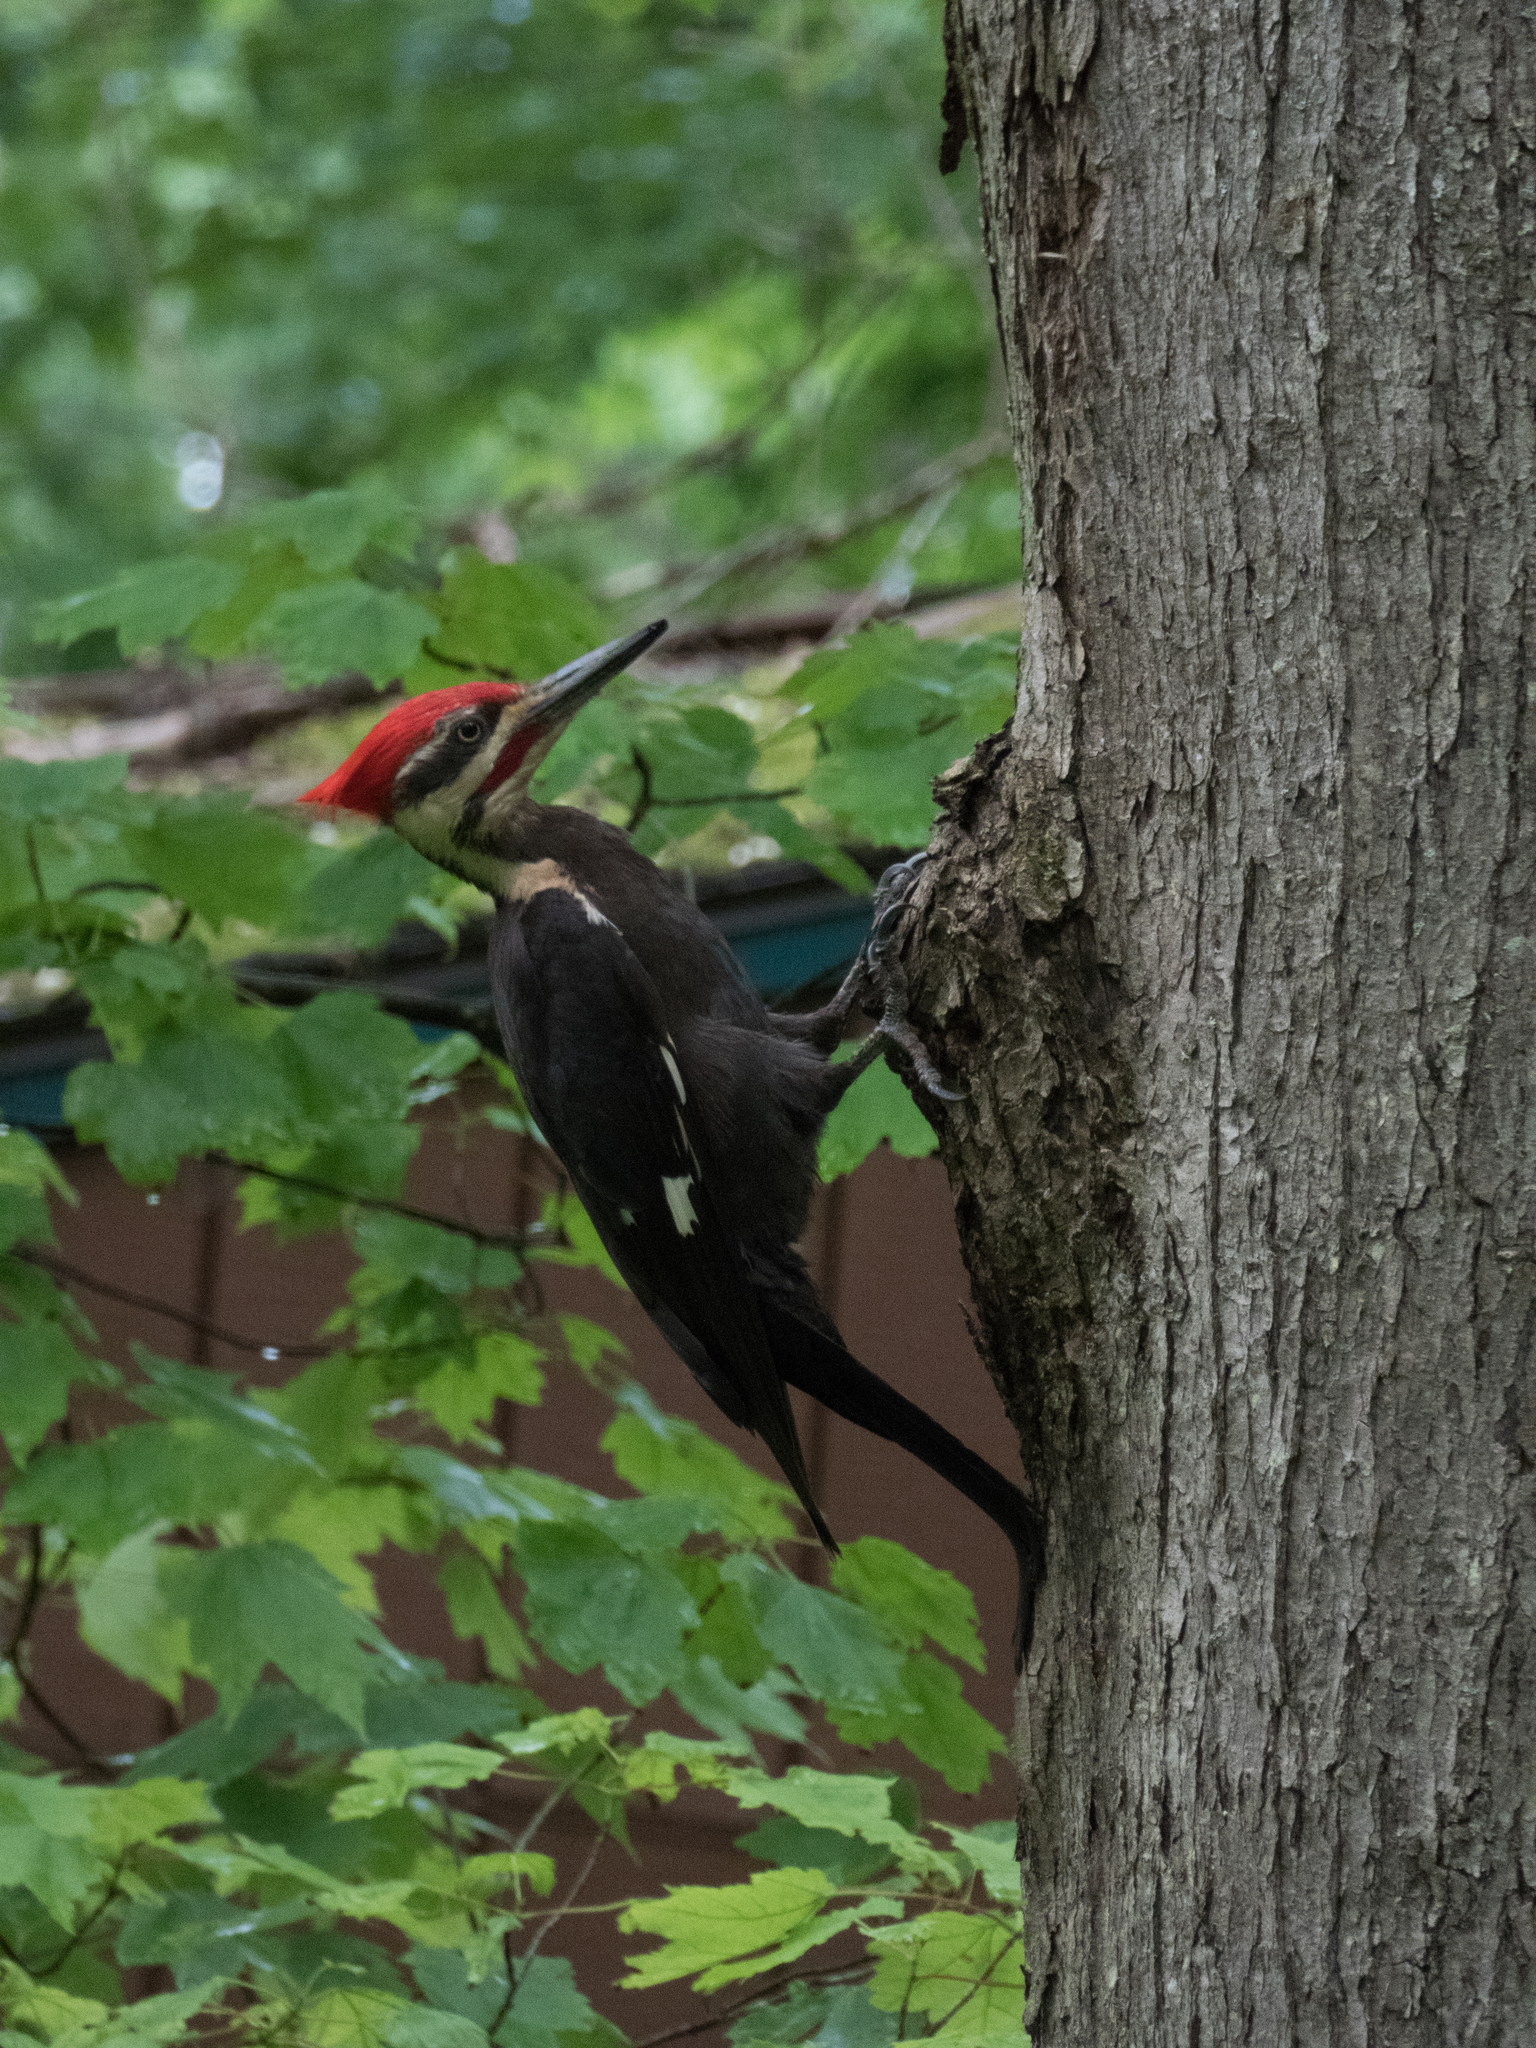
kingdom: Animalia
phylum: Chordata
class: Aves
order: Piciformes
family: Picidae
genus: Dryocopus
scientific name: Dryocopus pileatus
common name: Pileated woodpecker
